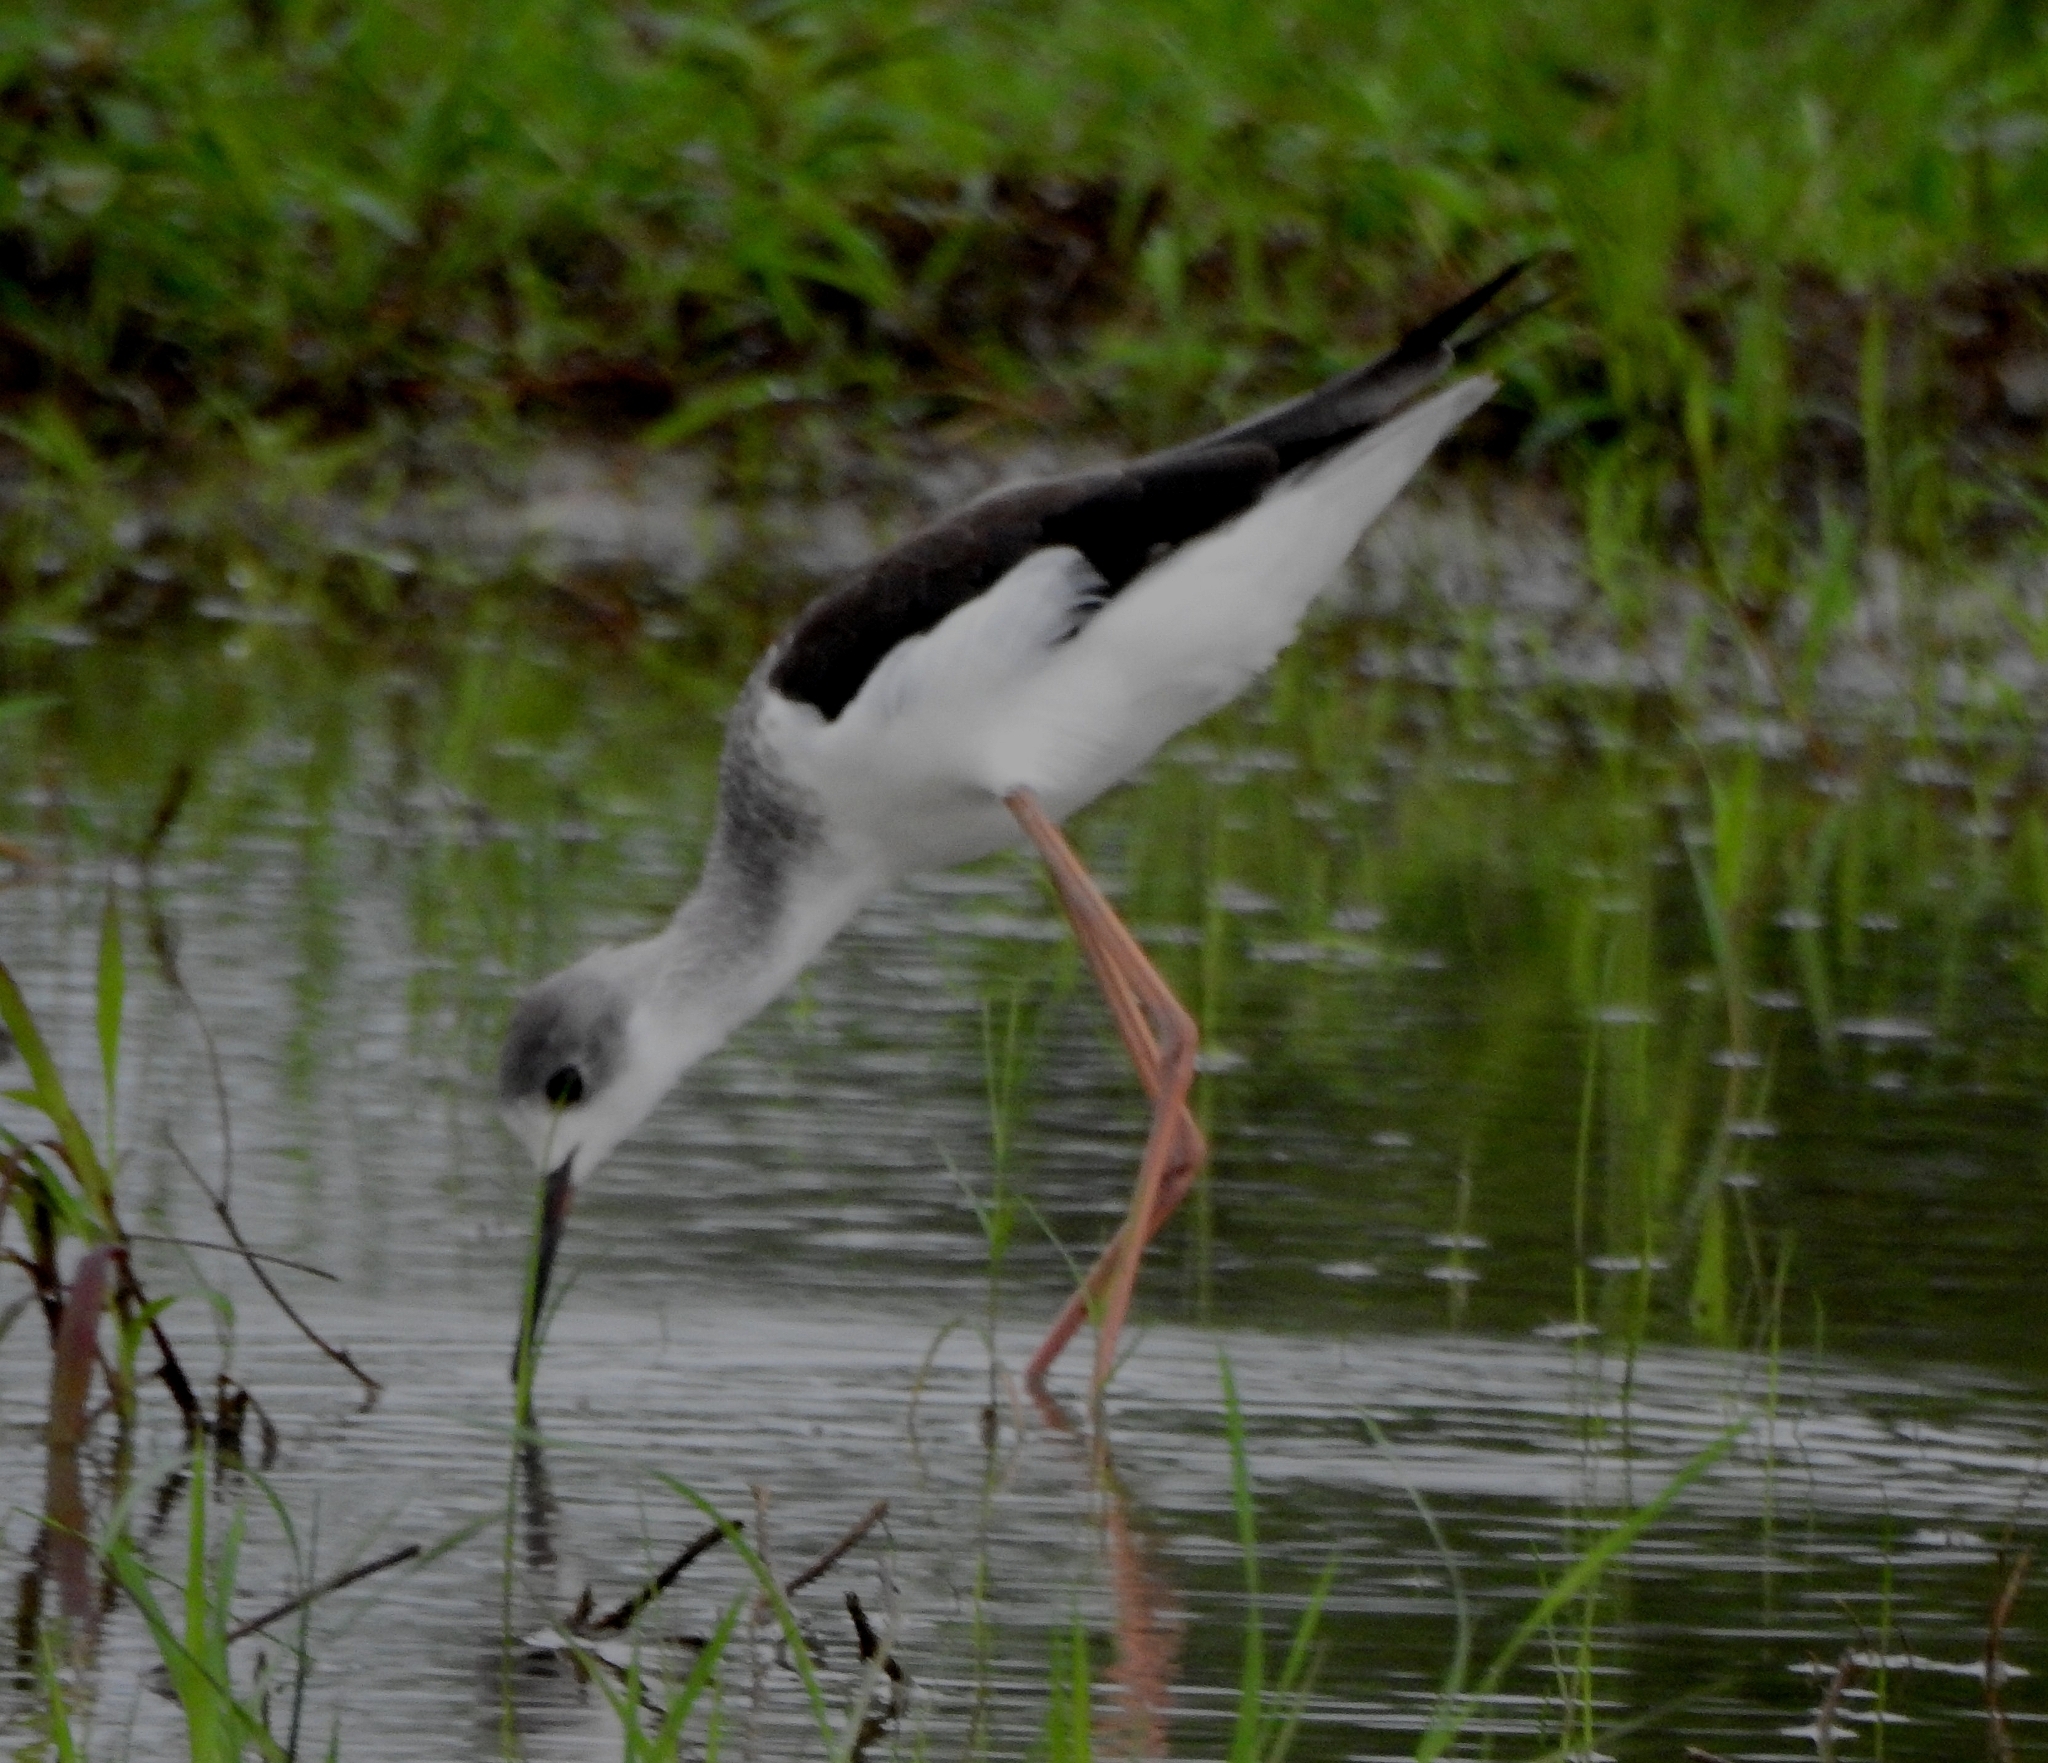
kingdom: Animalia
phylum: Chordata
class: Aves
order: Charadriiformes
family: Recurvirostridae
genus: Himantopus
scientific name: Himantopus himantopus
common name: Black-winged stilt
